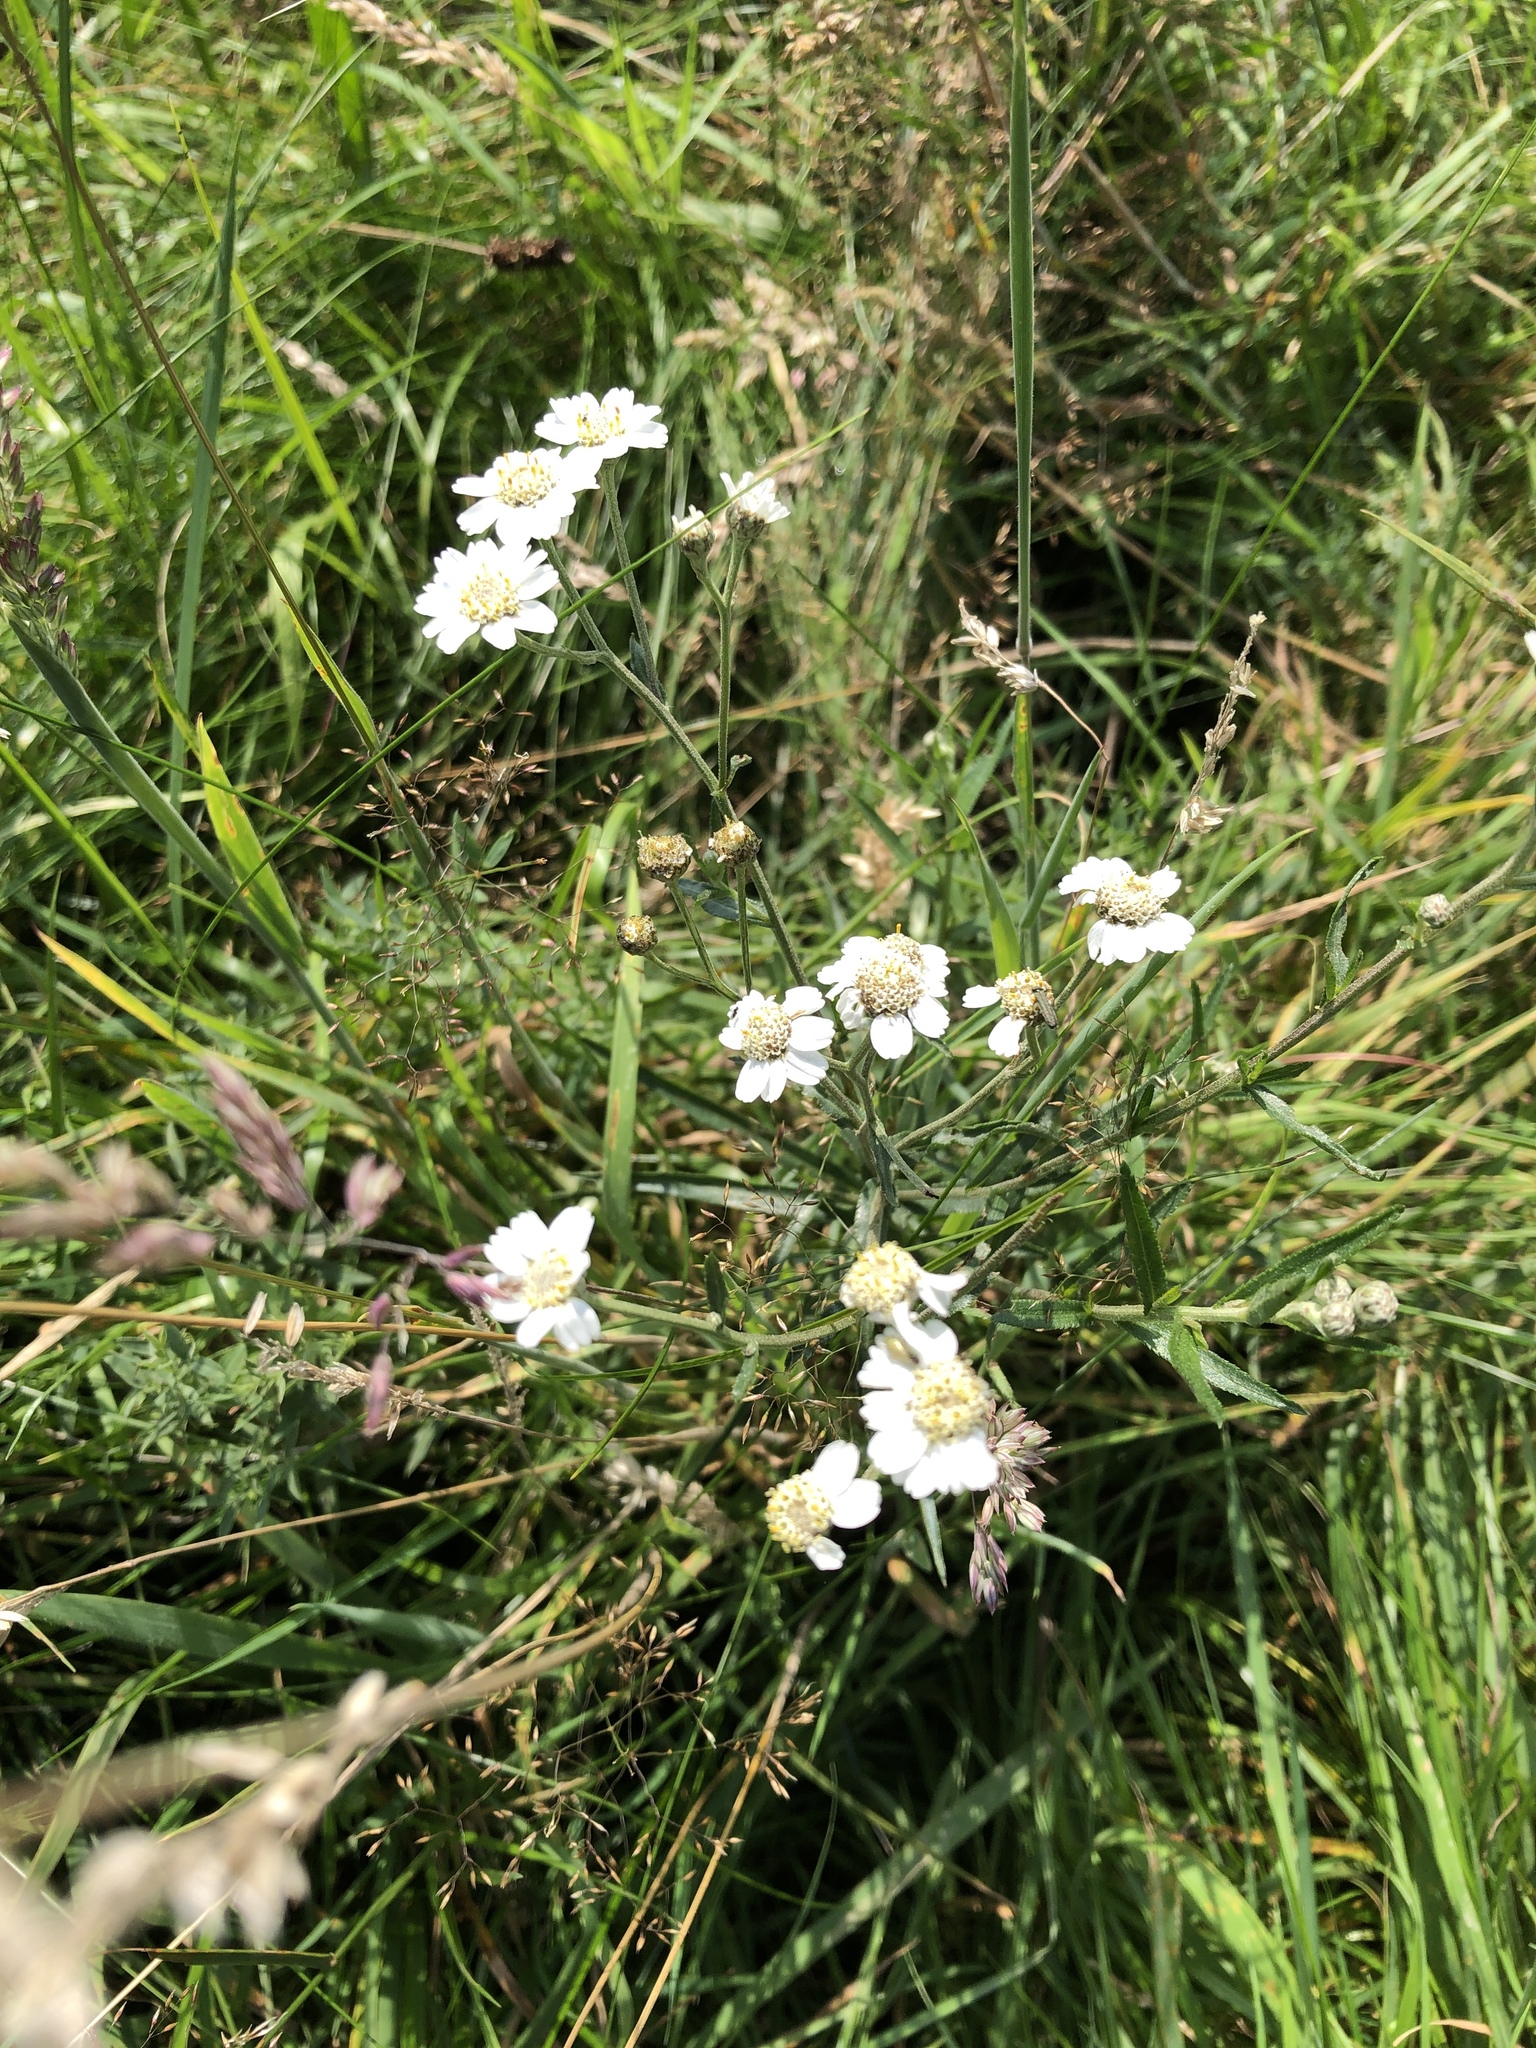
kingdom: Plantae
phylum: Tracheophyta
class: Magnoliopsida
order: Asterales
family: Asteraceae
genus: Achillea
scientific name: Achillea ptarmica
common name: Sneezeweed
